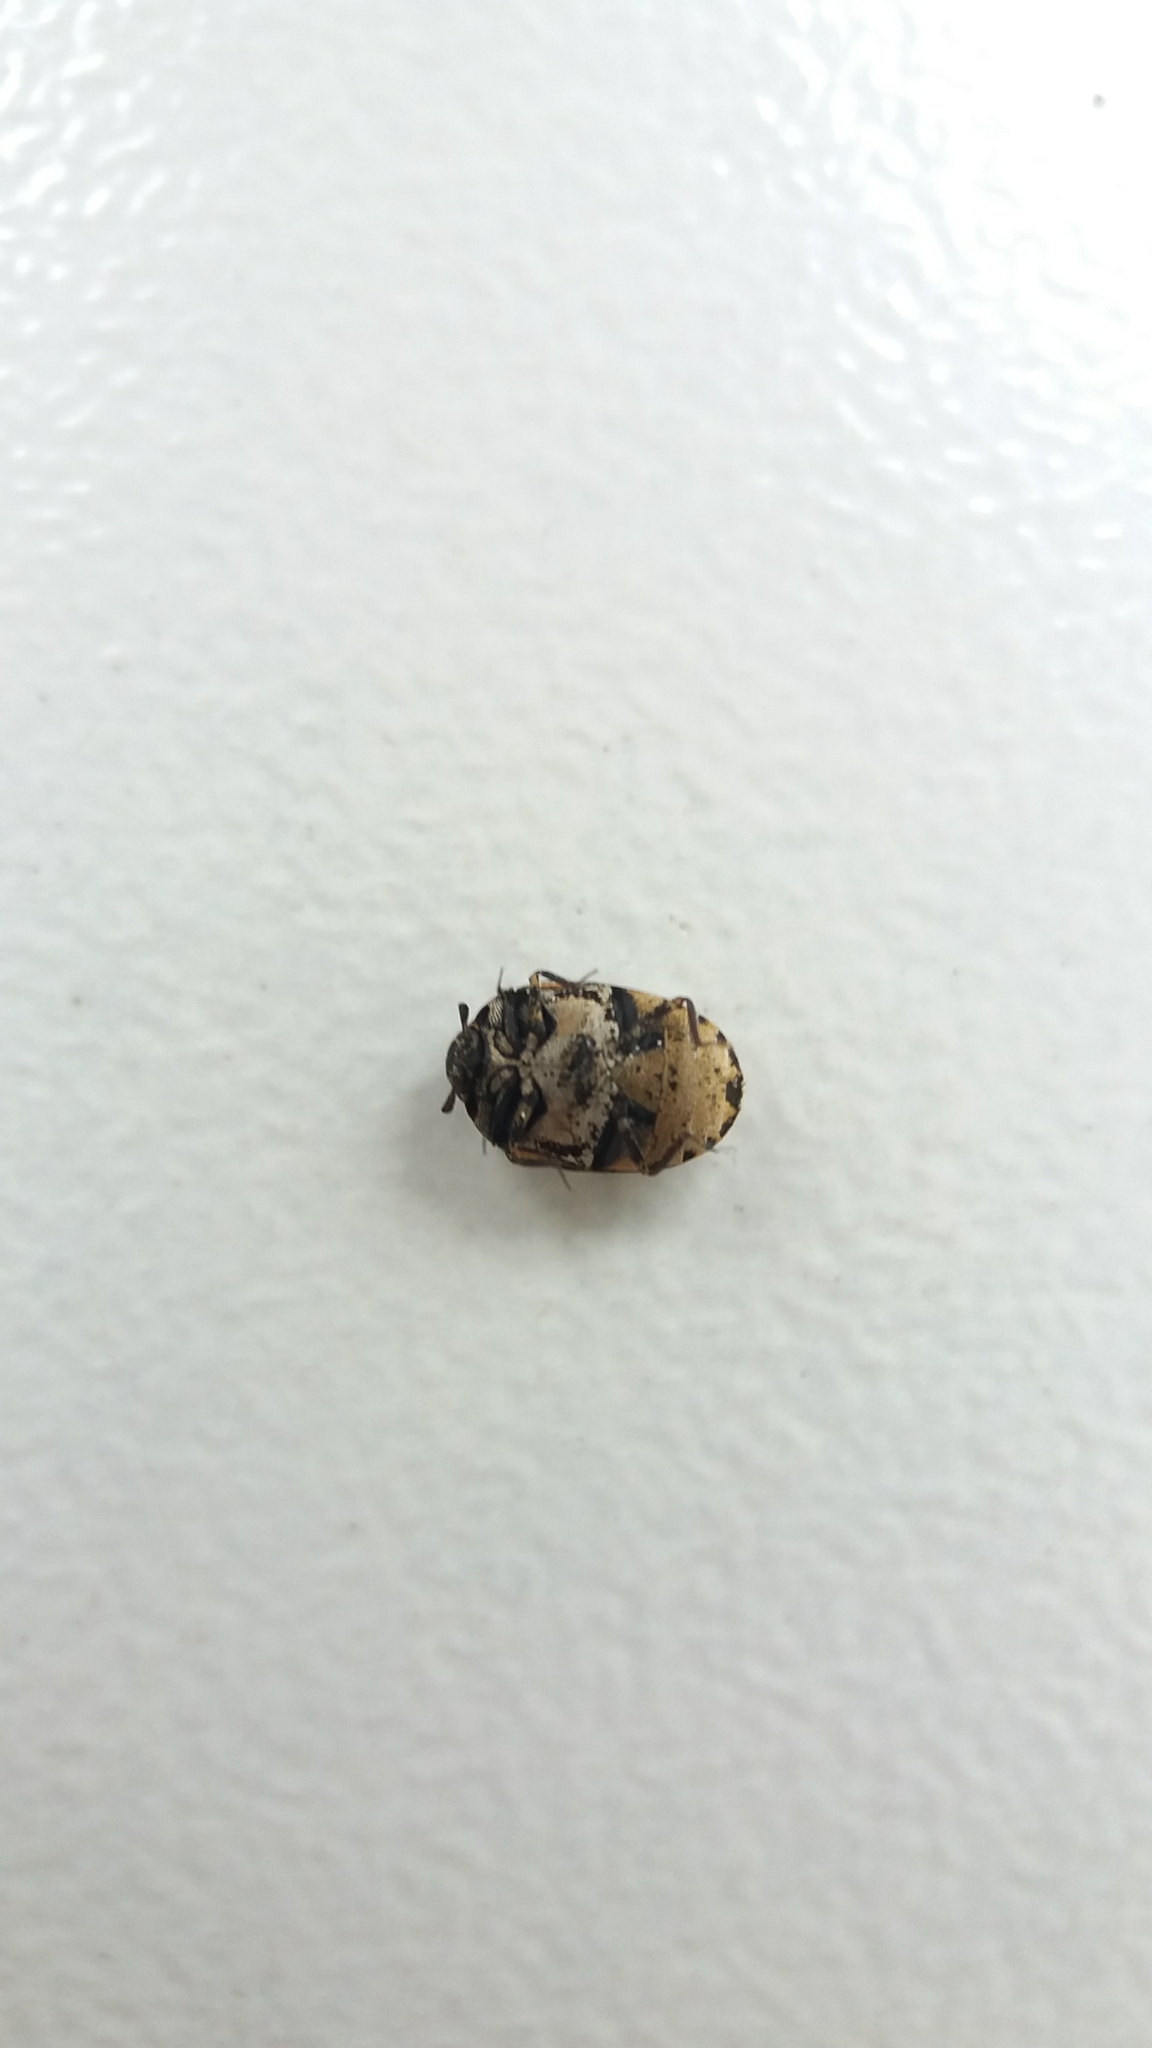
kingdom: Animalia
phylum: Arthropoda
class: Insecta
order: Coleoptera
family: Dermestidae
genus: Anthrenus
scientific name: Anthrenus scrophulariae
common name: Buffalo carpet beetle
